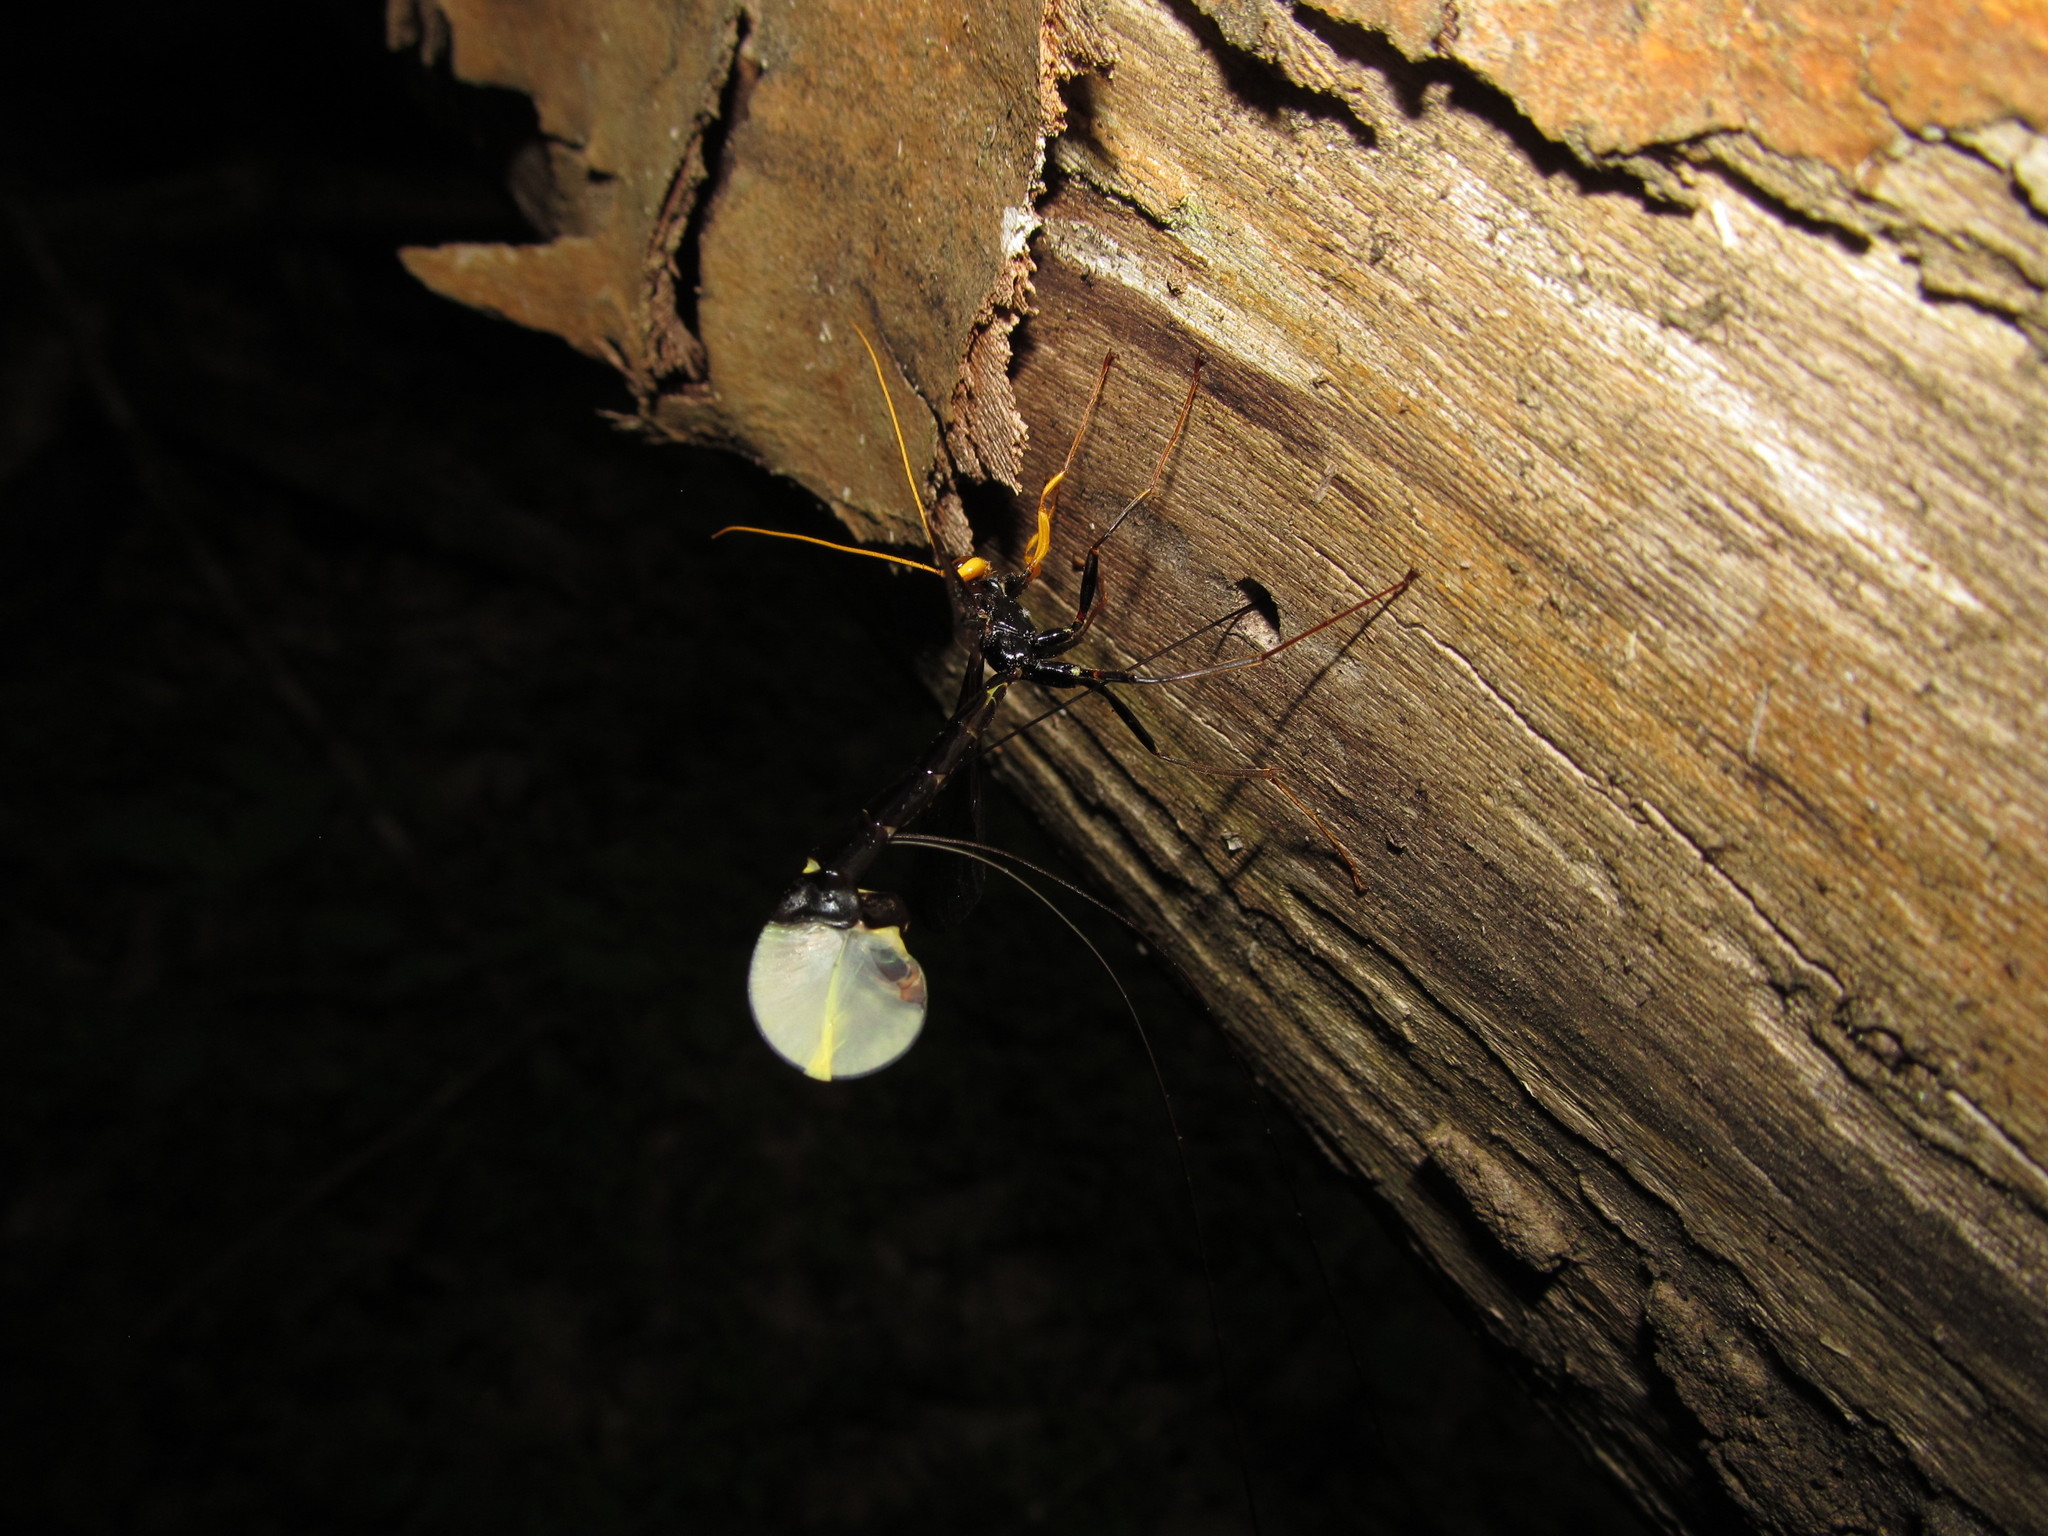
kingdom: Animalia
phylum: Arthropoda
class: Insecta
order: Hymenoptera
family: Ichneumonidae
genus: Megarhyssa
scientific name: Megarhyssa atrata
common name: Black giant ichneumonid wasp
